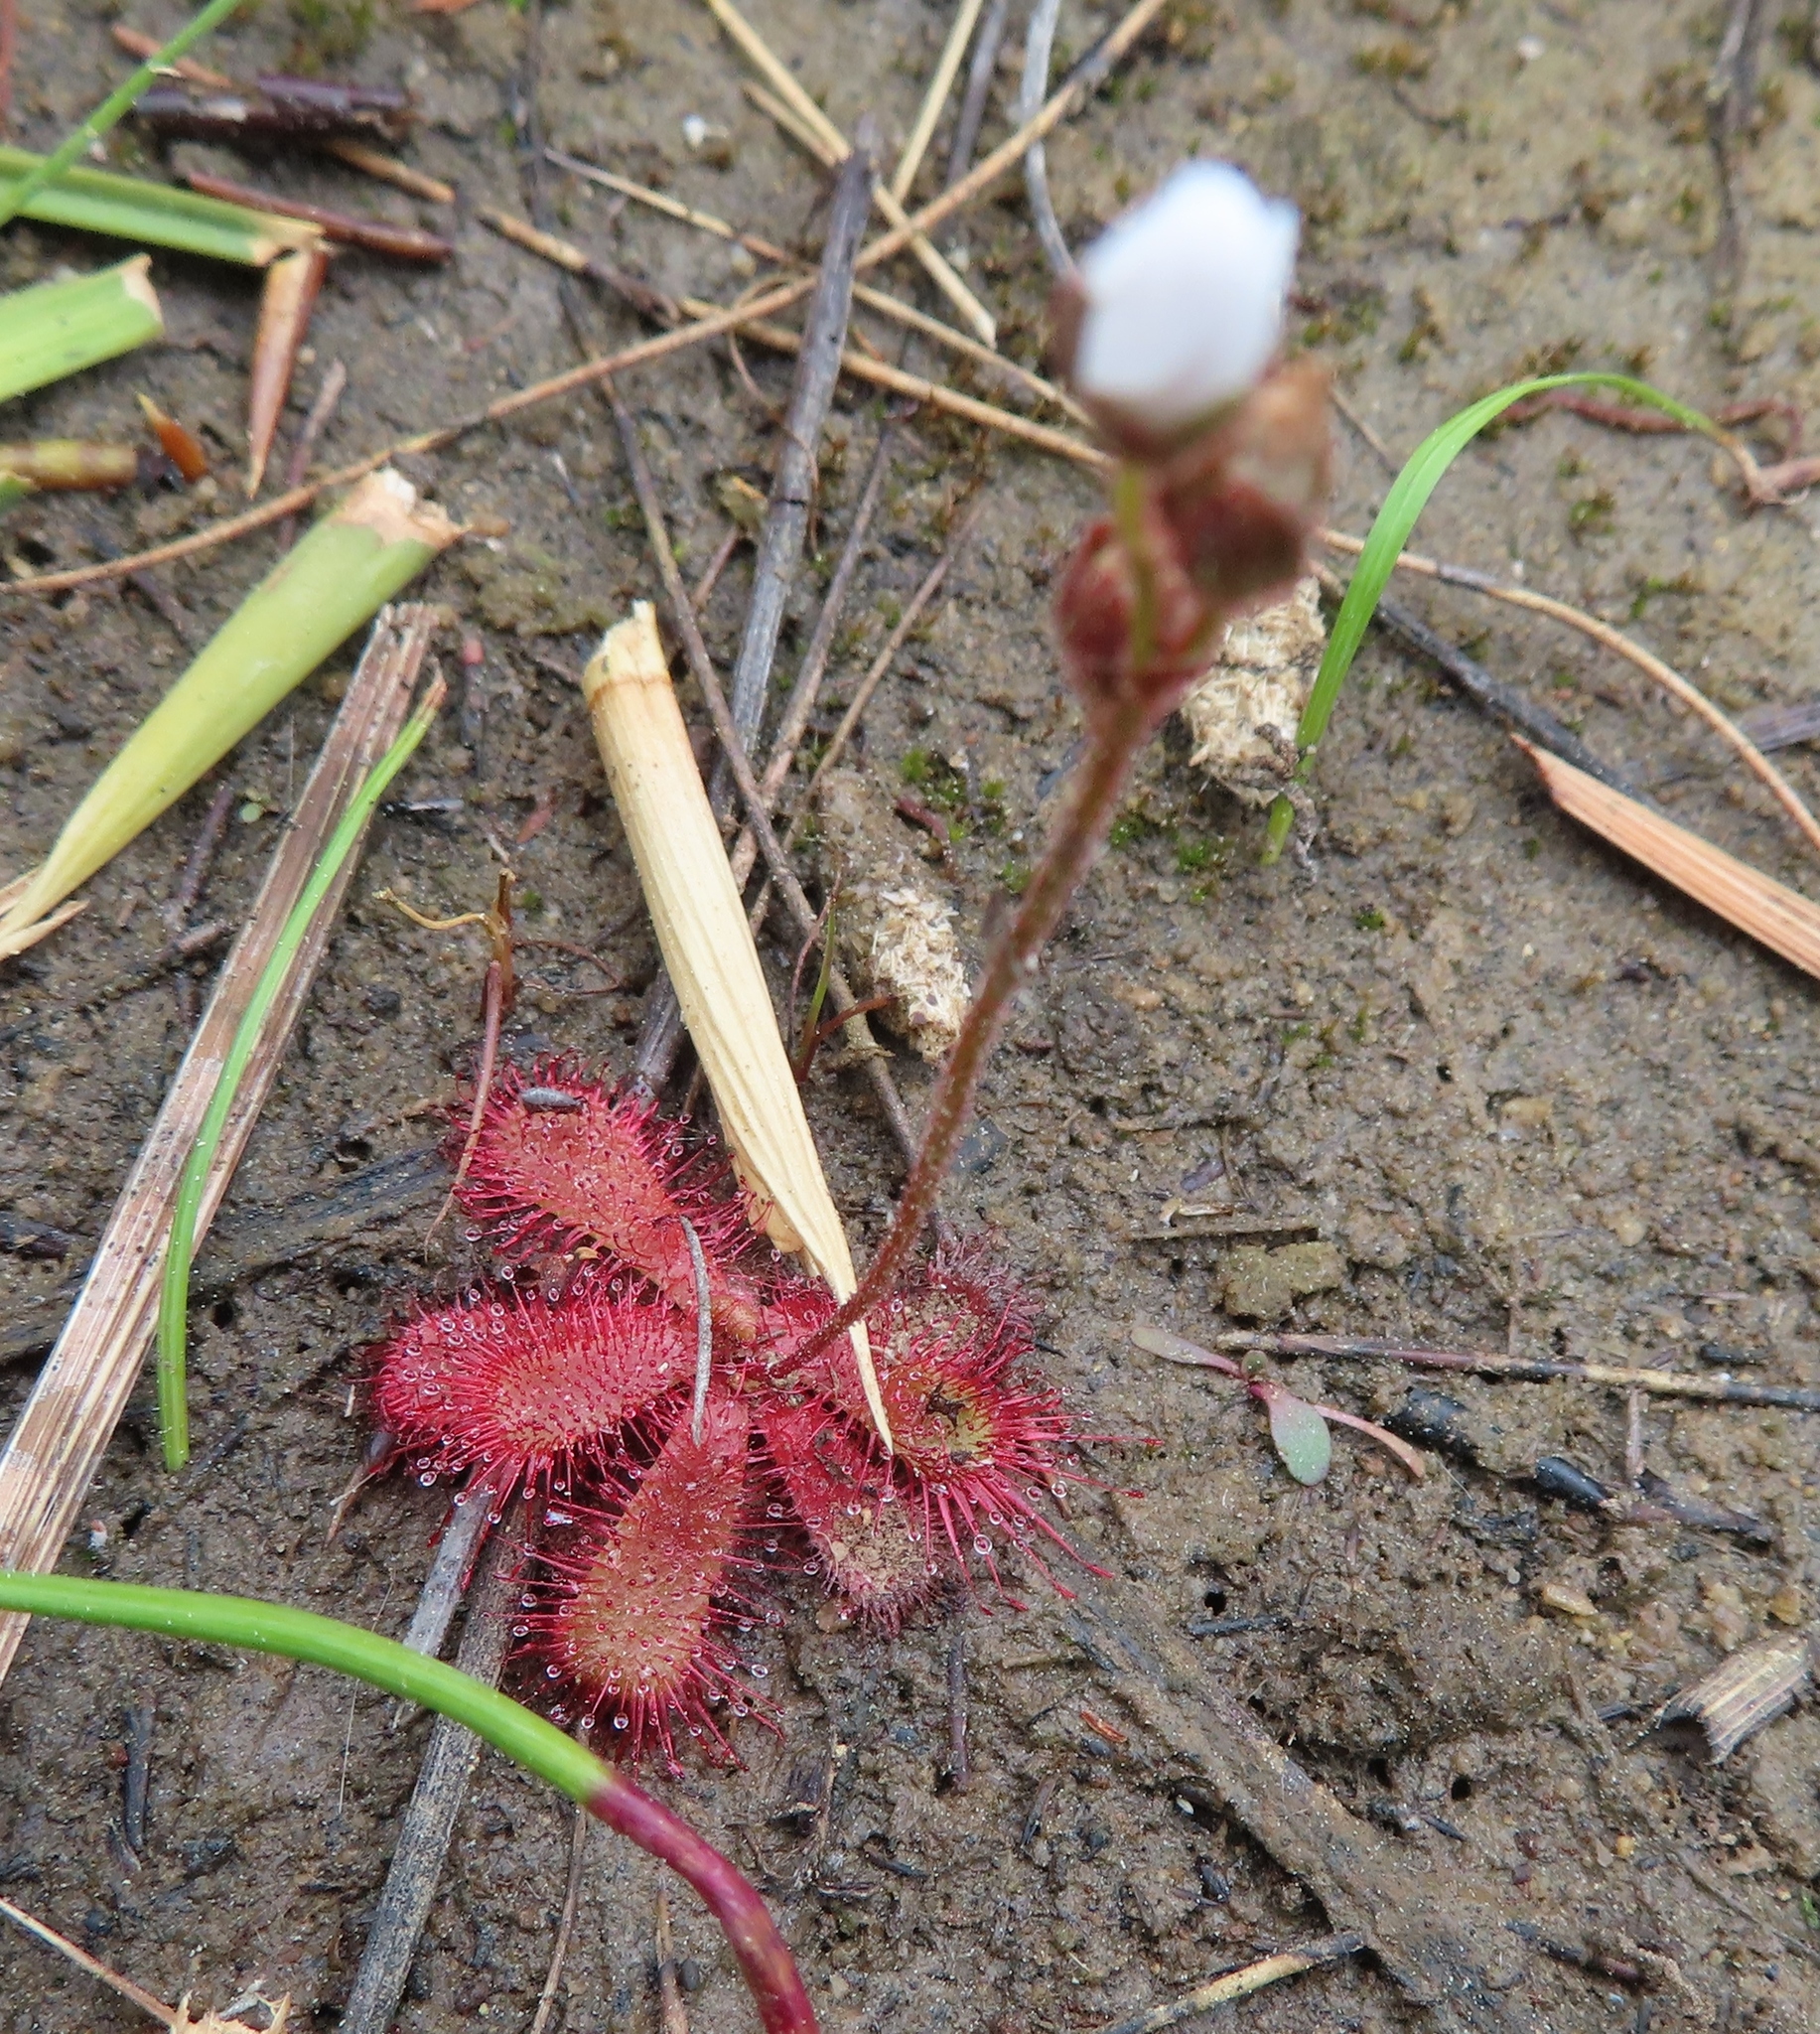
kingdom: Plantae
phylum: Tracheophyta
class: Magnoliopsida
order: Caryophyllales
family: Droseraceae
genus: Drosera
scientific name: Drosera trinervia
